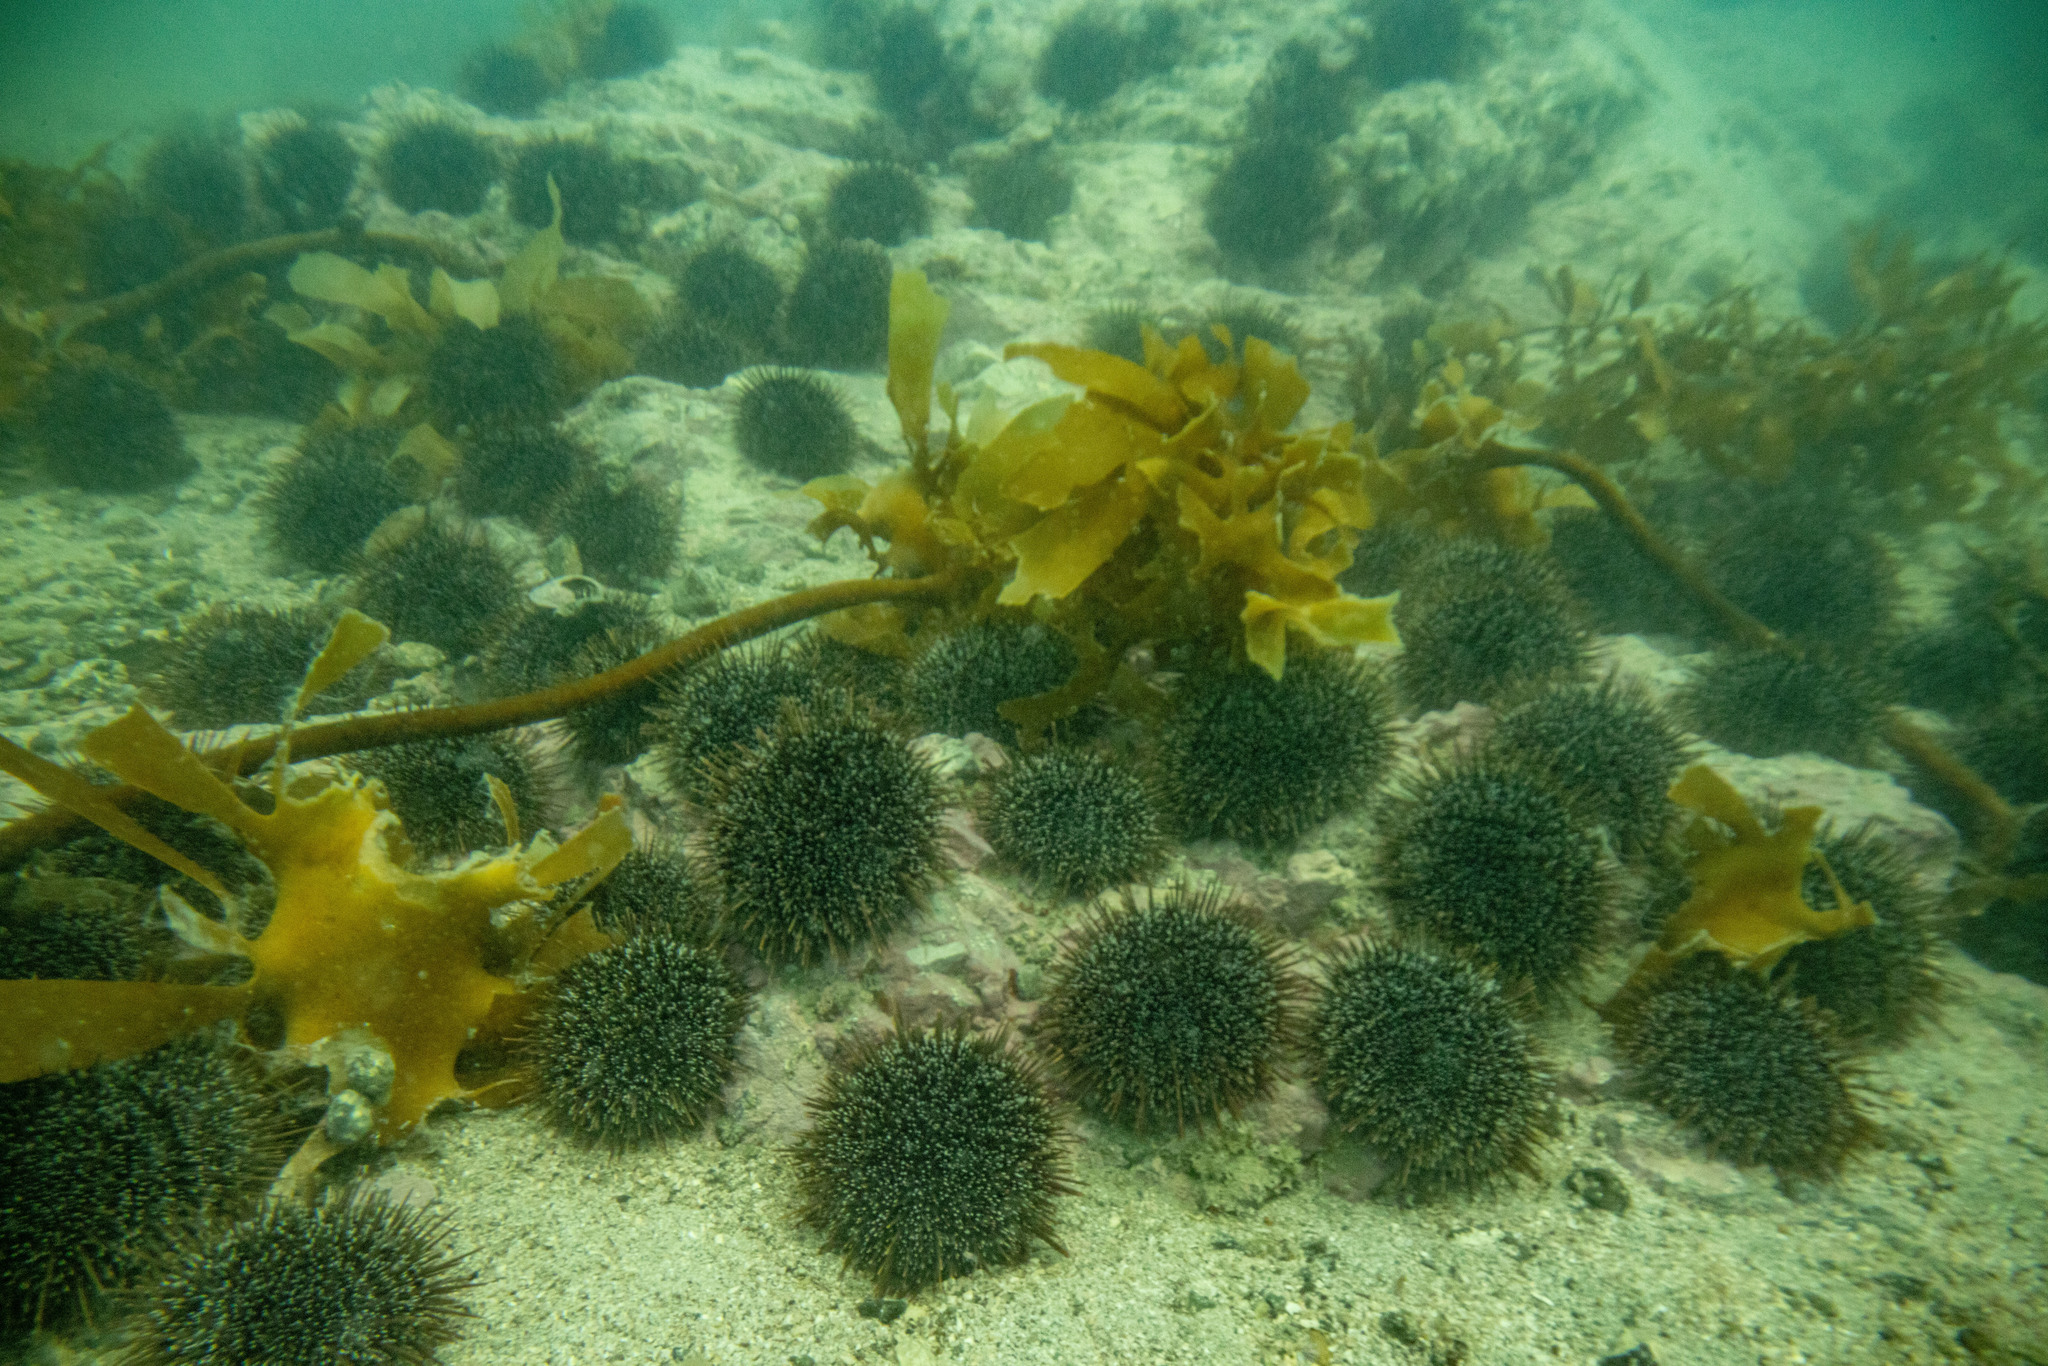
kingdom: Animalia
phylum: Echinodermata
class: Echinoidea
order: Camarodonta
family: Echinometridae
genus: Evechinus
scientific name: Evechinus chloroticus
